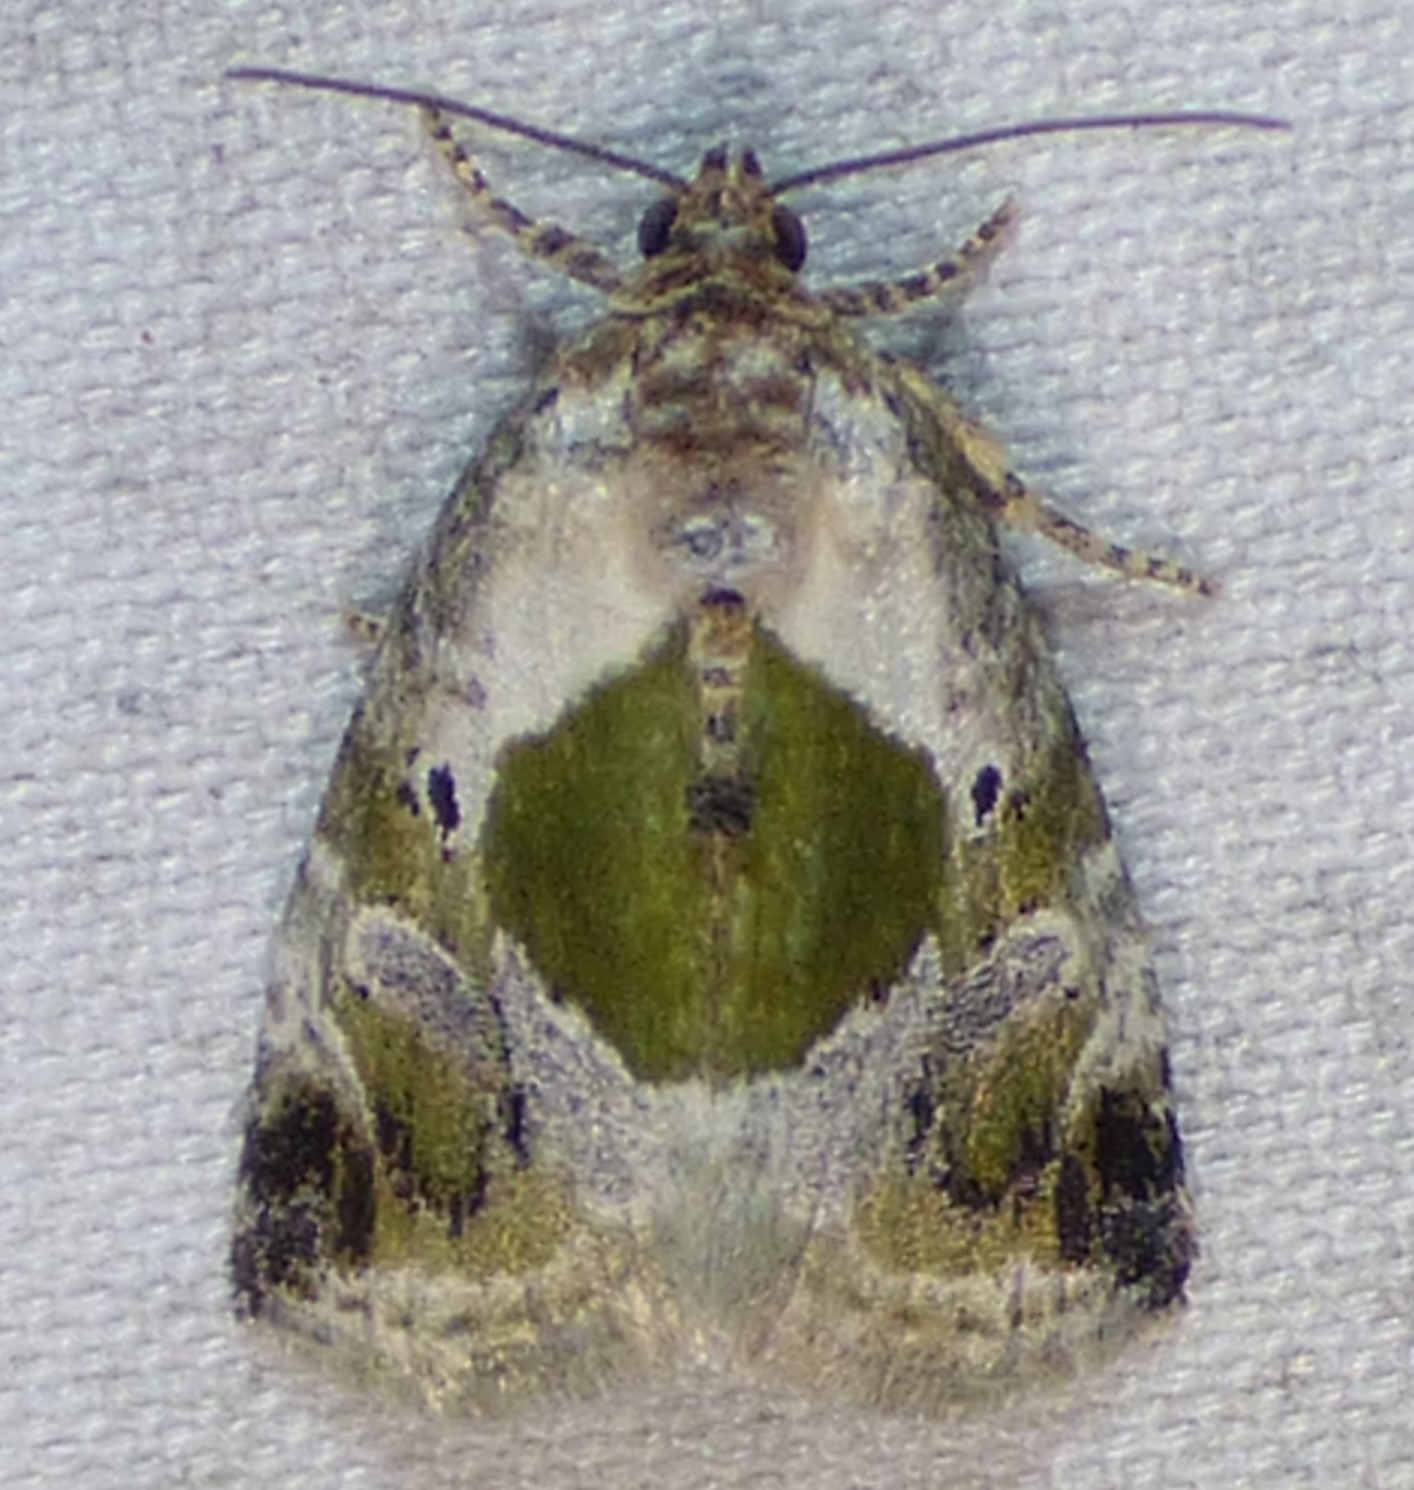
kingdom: Animalia
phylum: Arthropoda
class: Insecta
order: Lepidoptera
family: Noctuidae
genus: Maliattha
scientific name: Maliattha synochitis
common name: Black-dotted glyph
